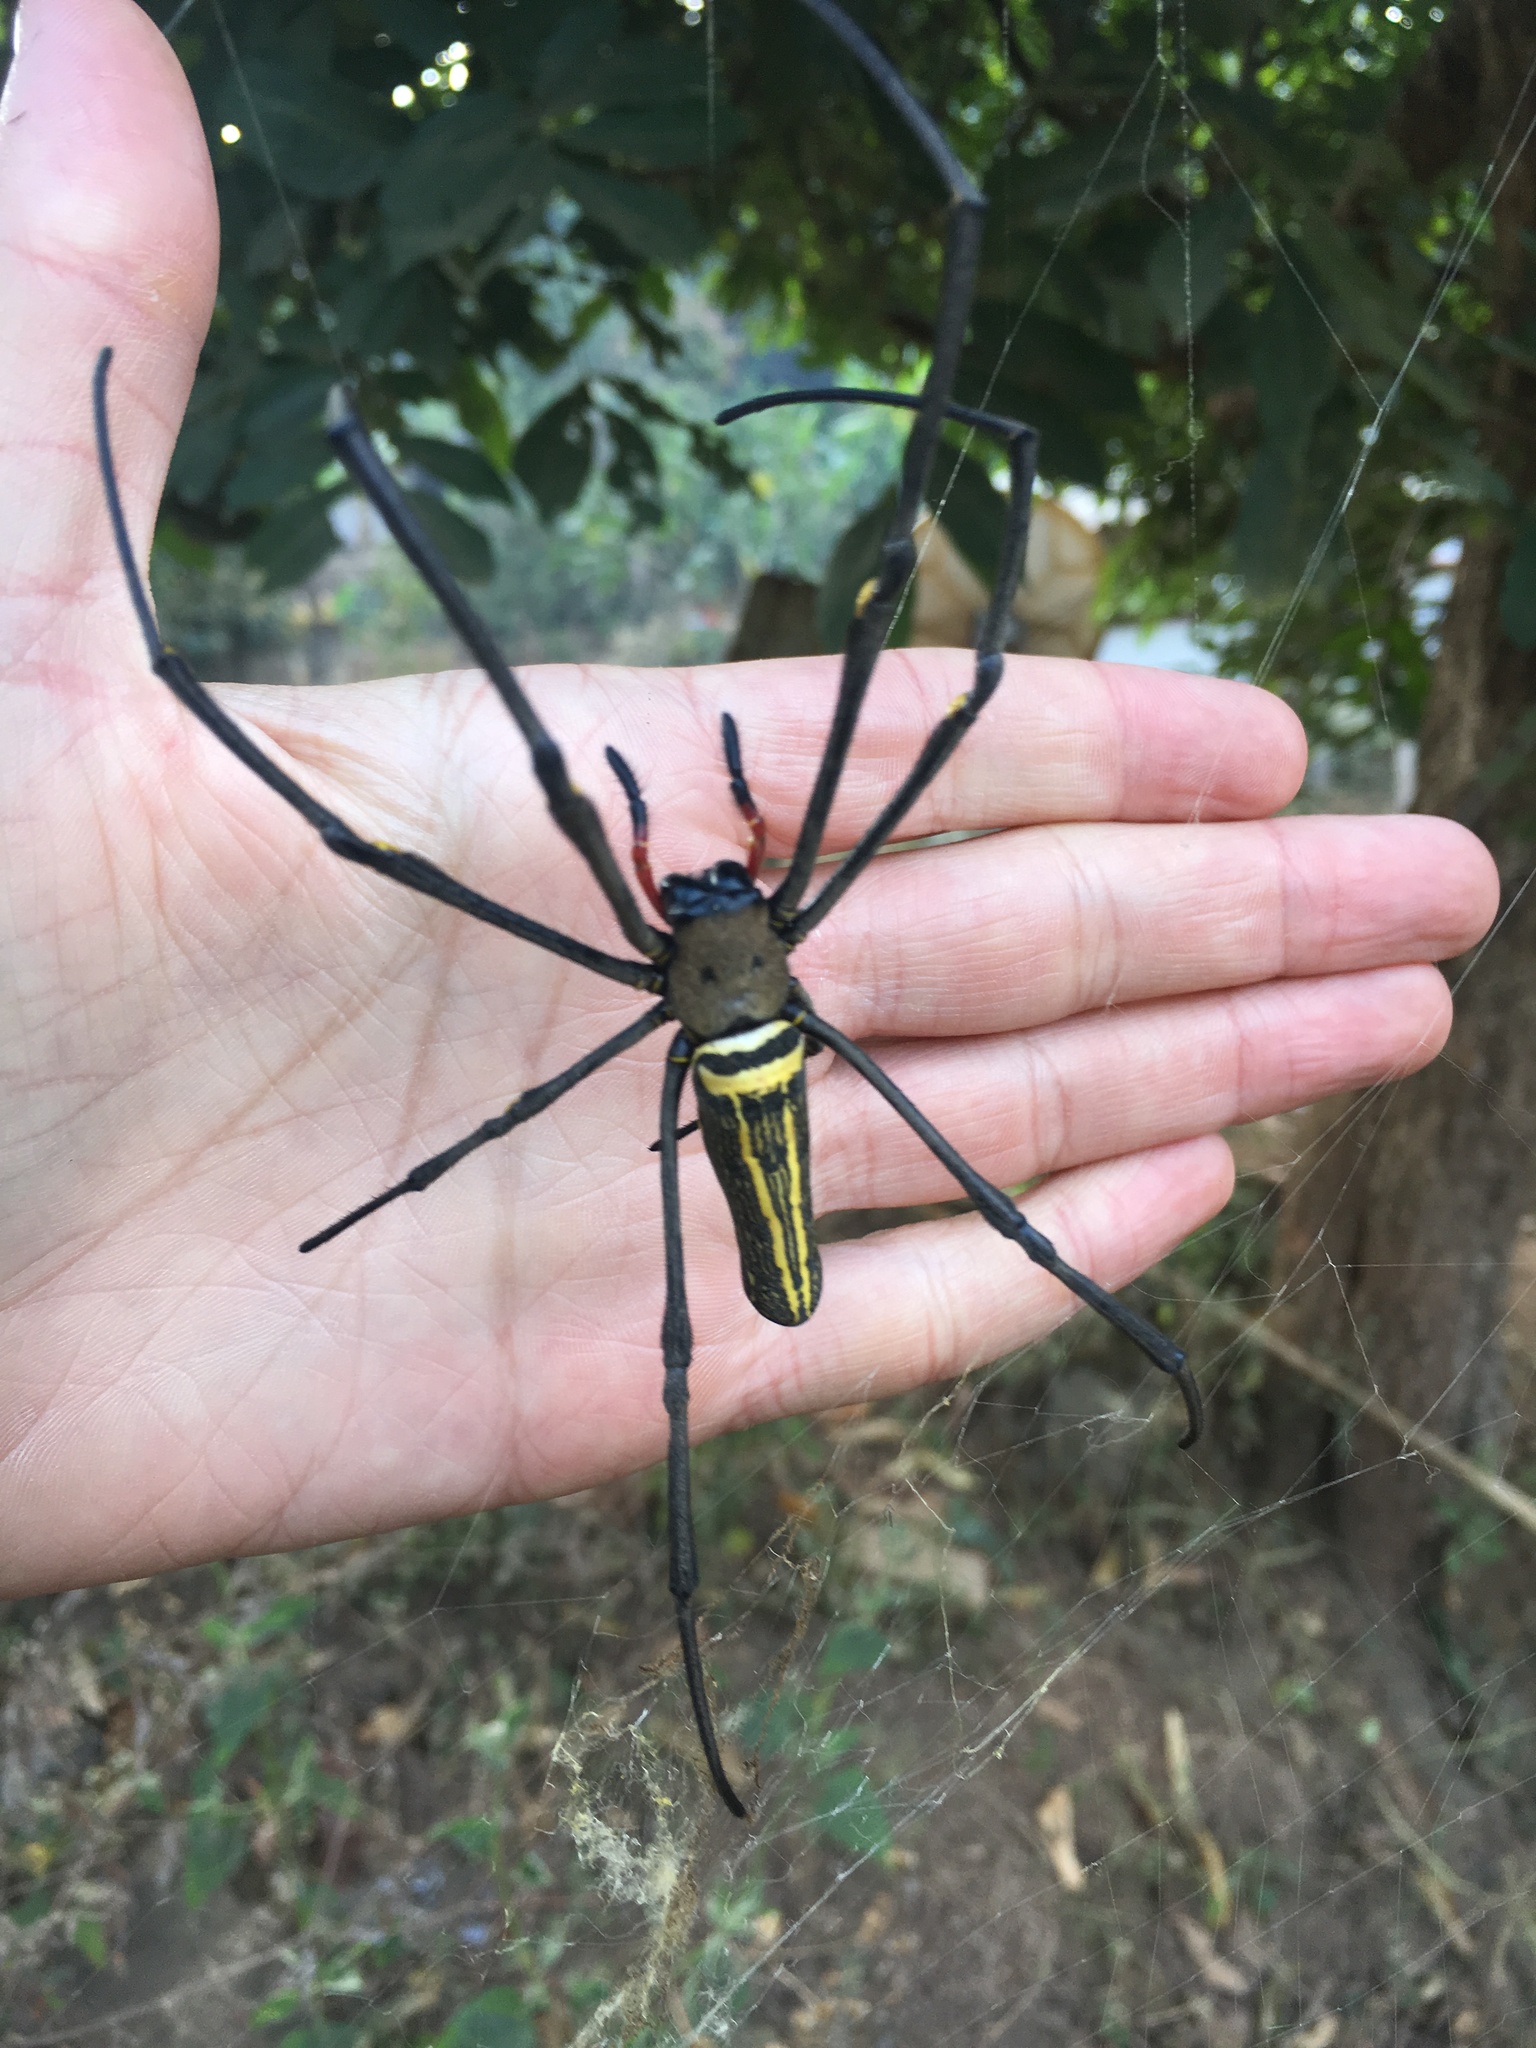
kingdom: Animalia
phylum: Arthropoda
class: Arachnida
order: Araneae
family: Araneidae
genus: Nephila
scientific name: Nephila pilipes
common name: Giant golden orb weaver
